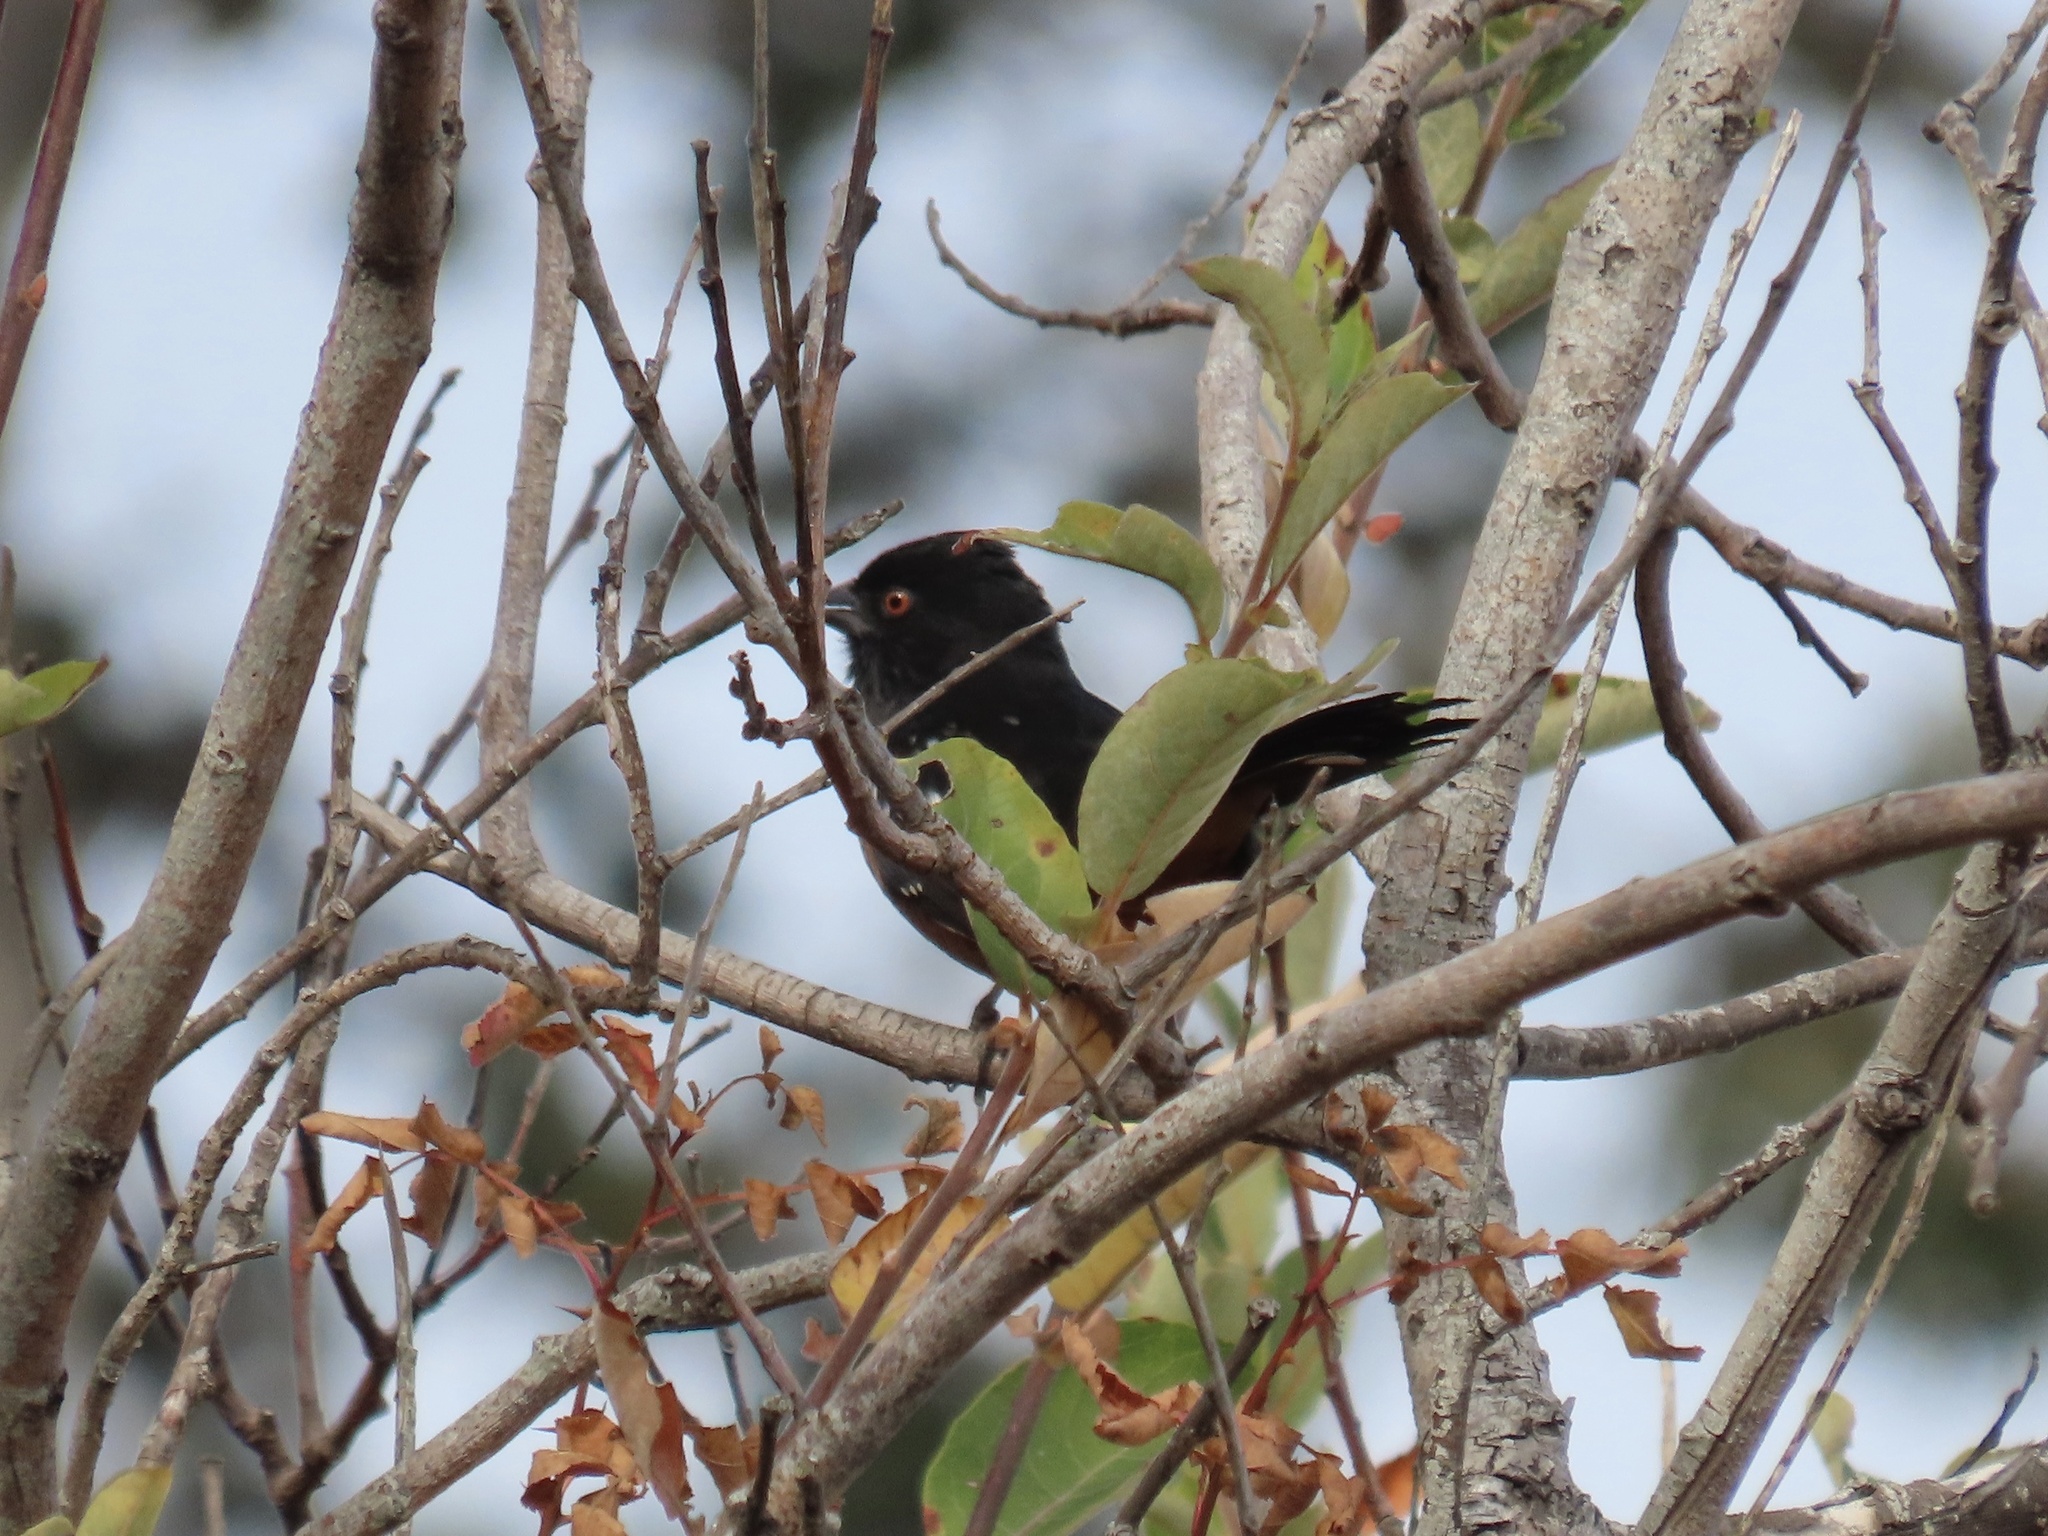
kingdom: Animalia
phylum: Chordata
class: Aves
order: Passeriformes
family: Passerellidae
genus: Pipilo
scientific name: Pipilo maculatus
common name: Spotted towhee
